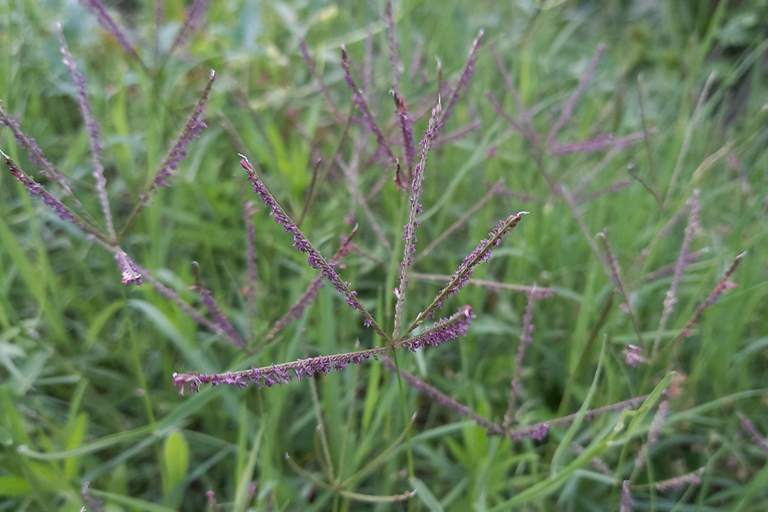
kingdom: Plantae
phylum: Tracheophyta
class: Liliopsida
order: Poales
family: Poaceae
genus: Cynodon
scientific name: Cynodon dactylon
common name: Bermuda grass
